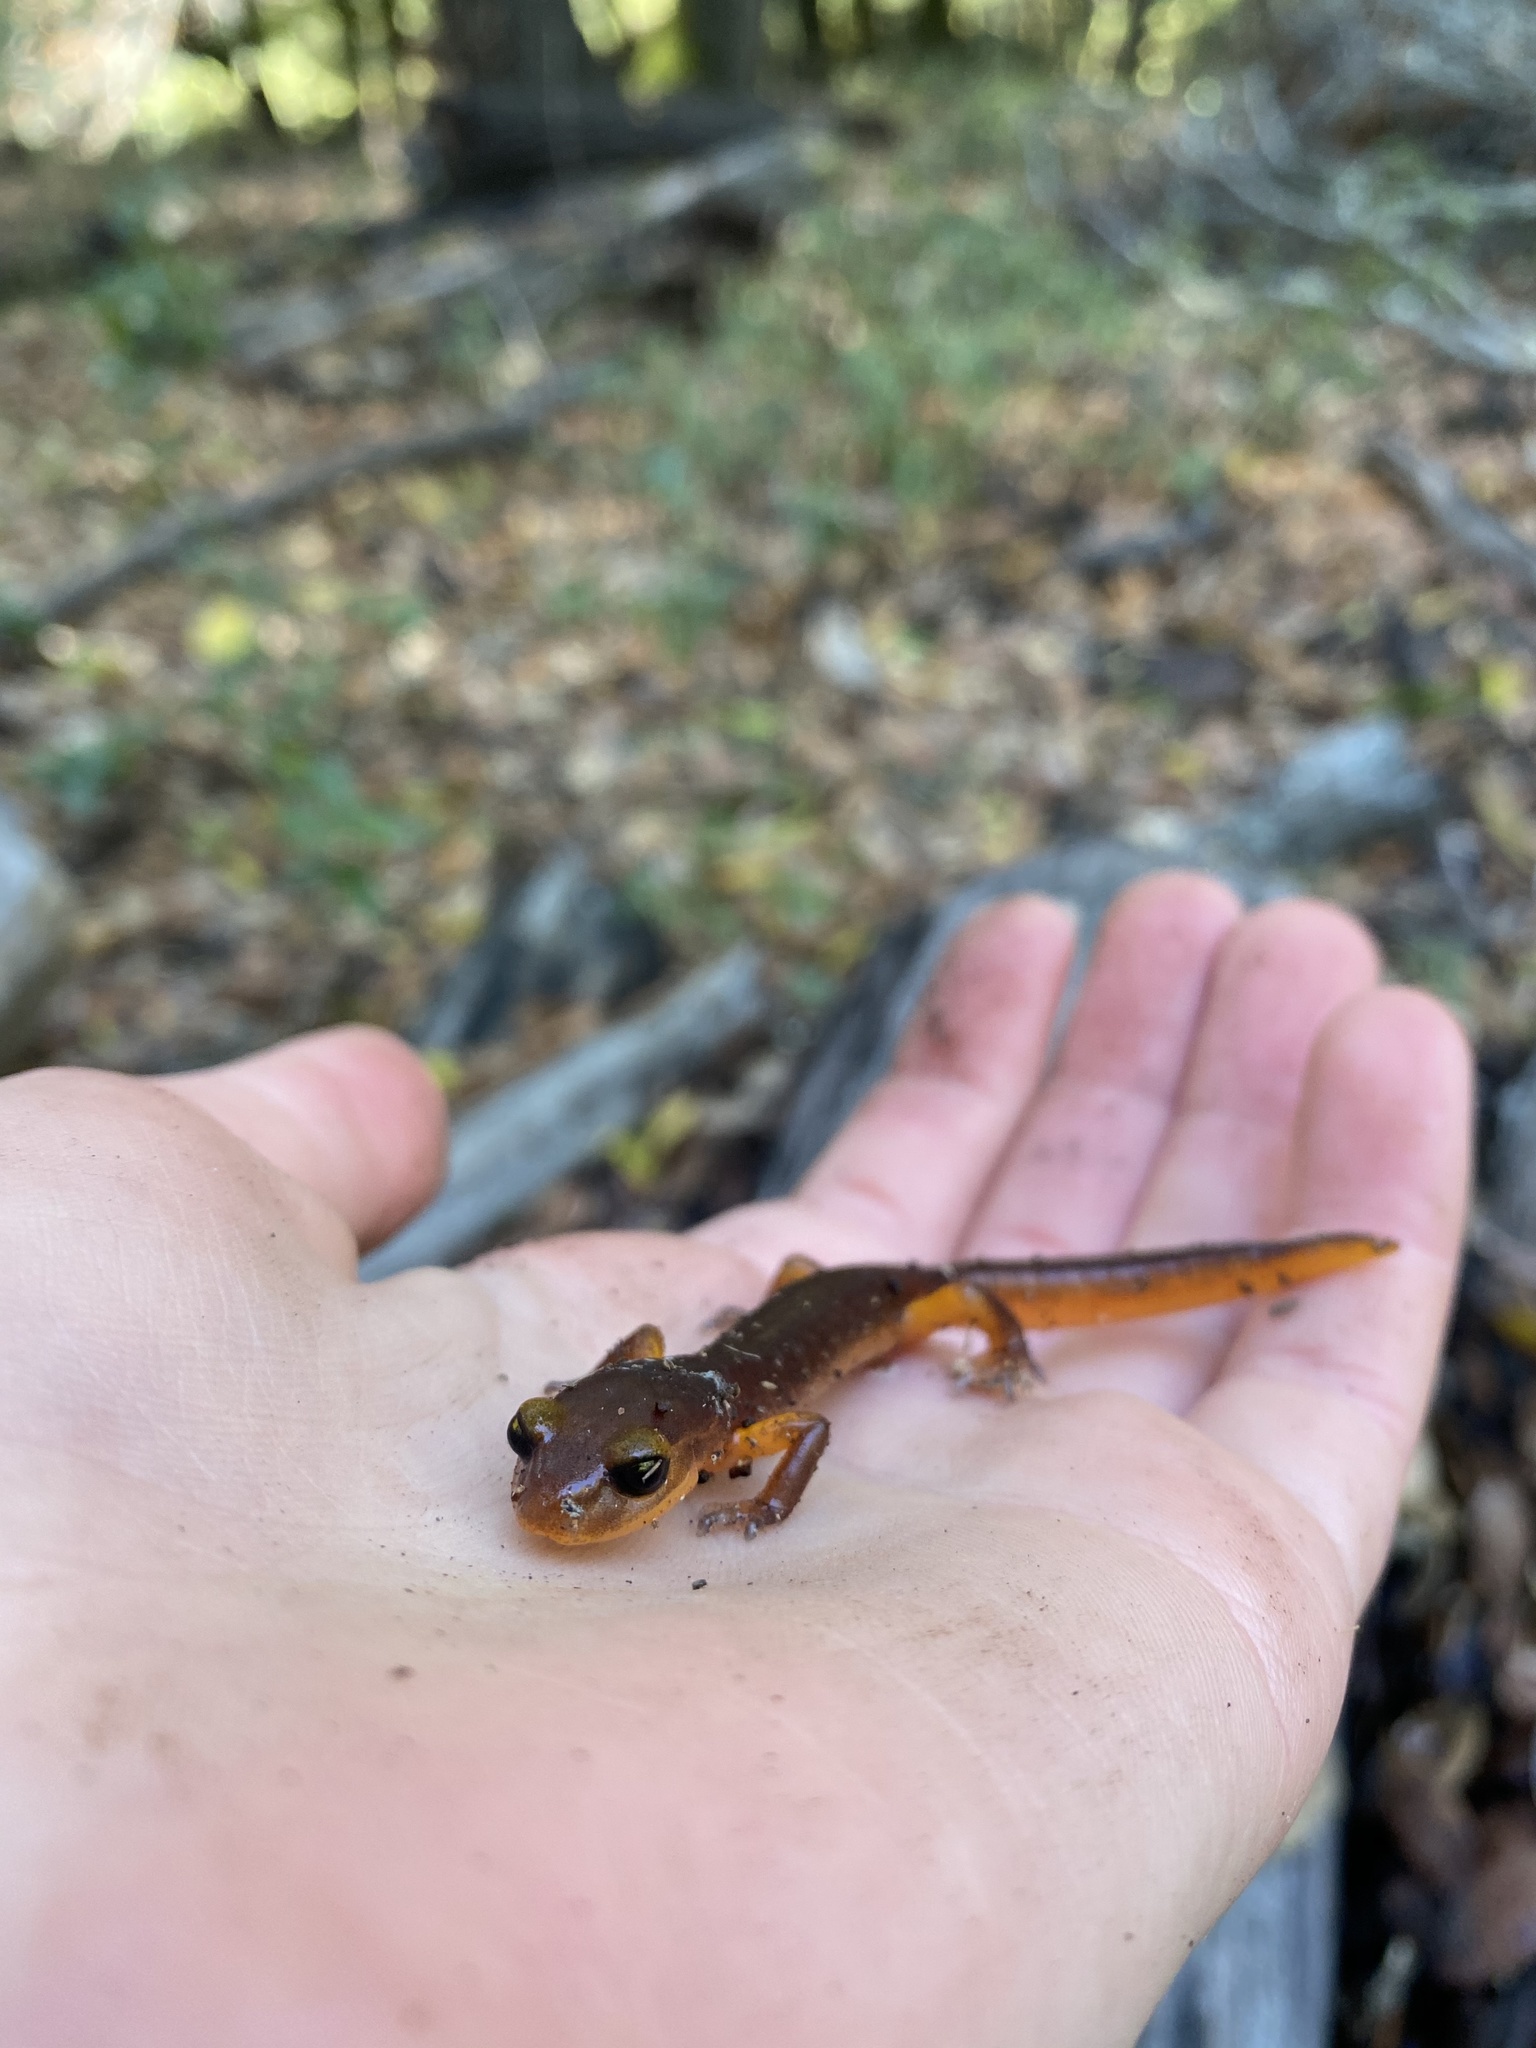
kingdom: Animalia
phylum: Chordata
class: Amphibia
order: Caudata
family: Plethodontidae
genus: Ensatina
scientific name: Ensatina eschscholtzii
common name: Ensatina
